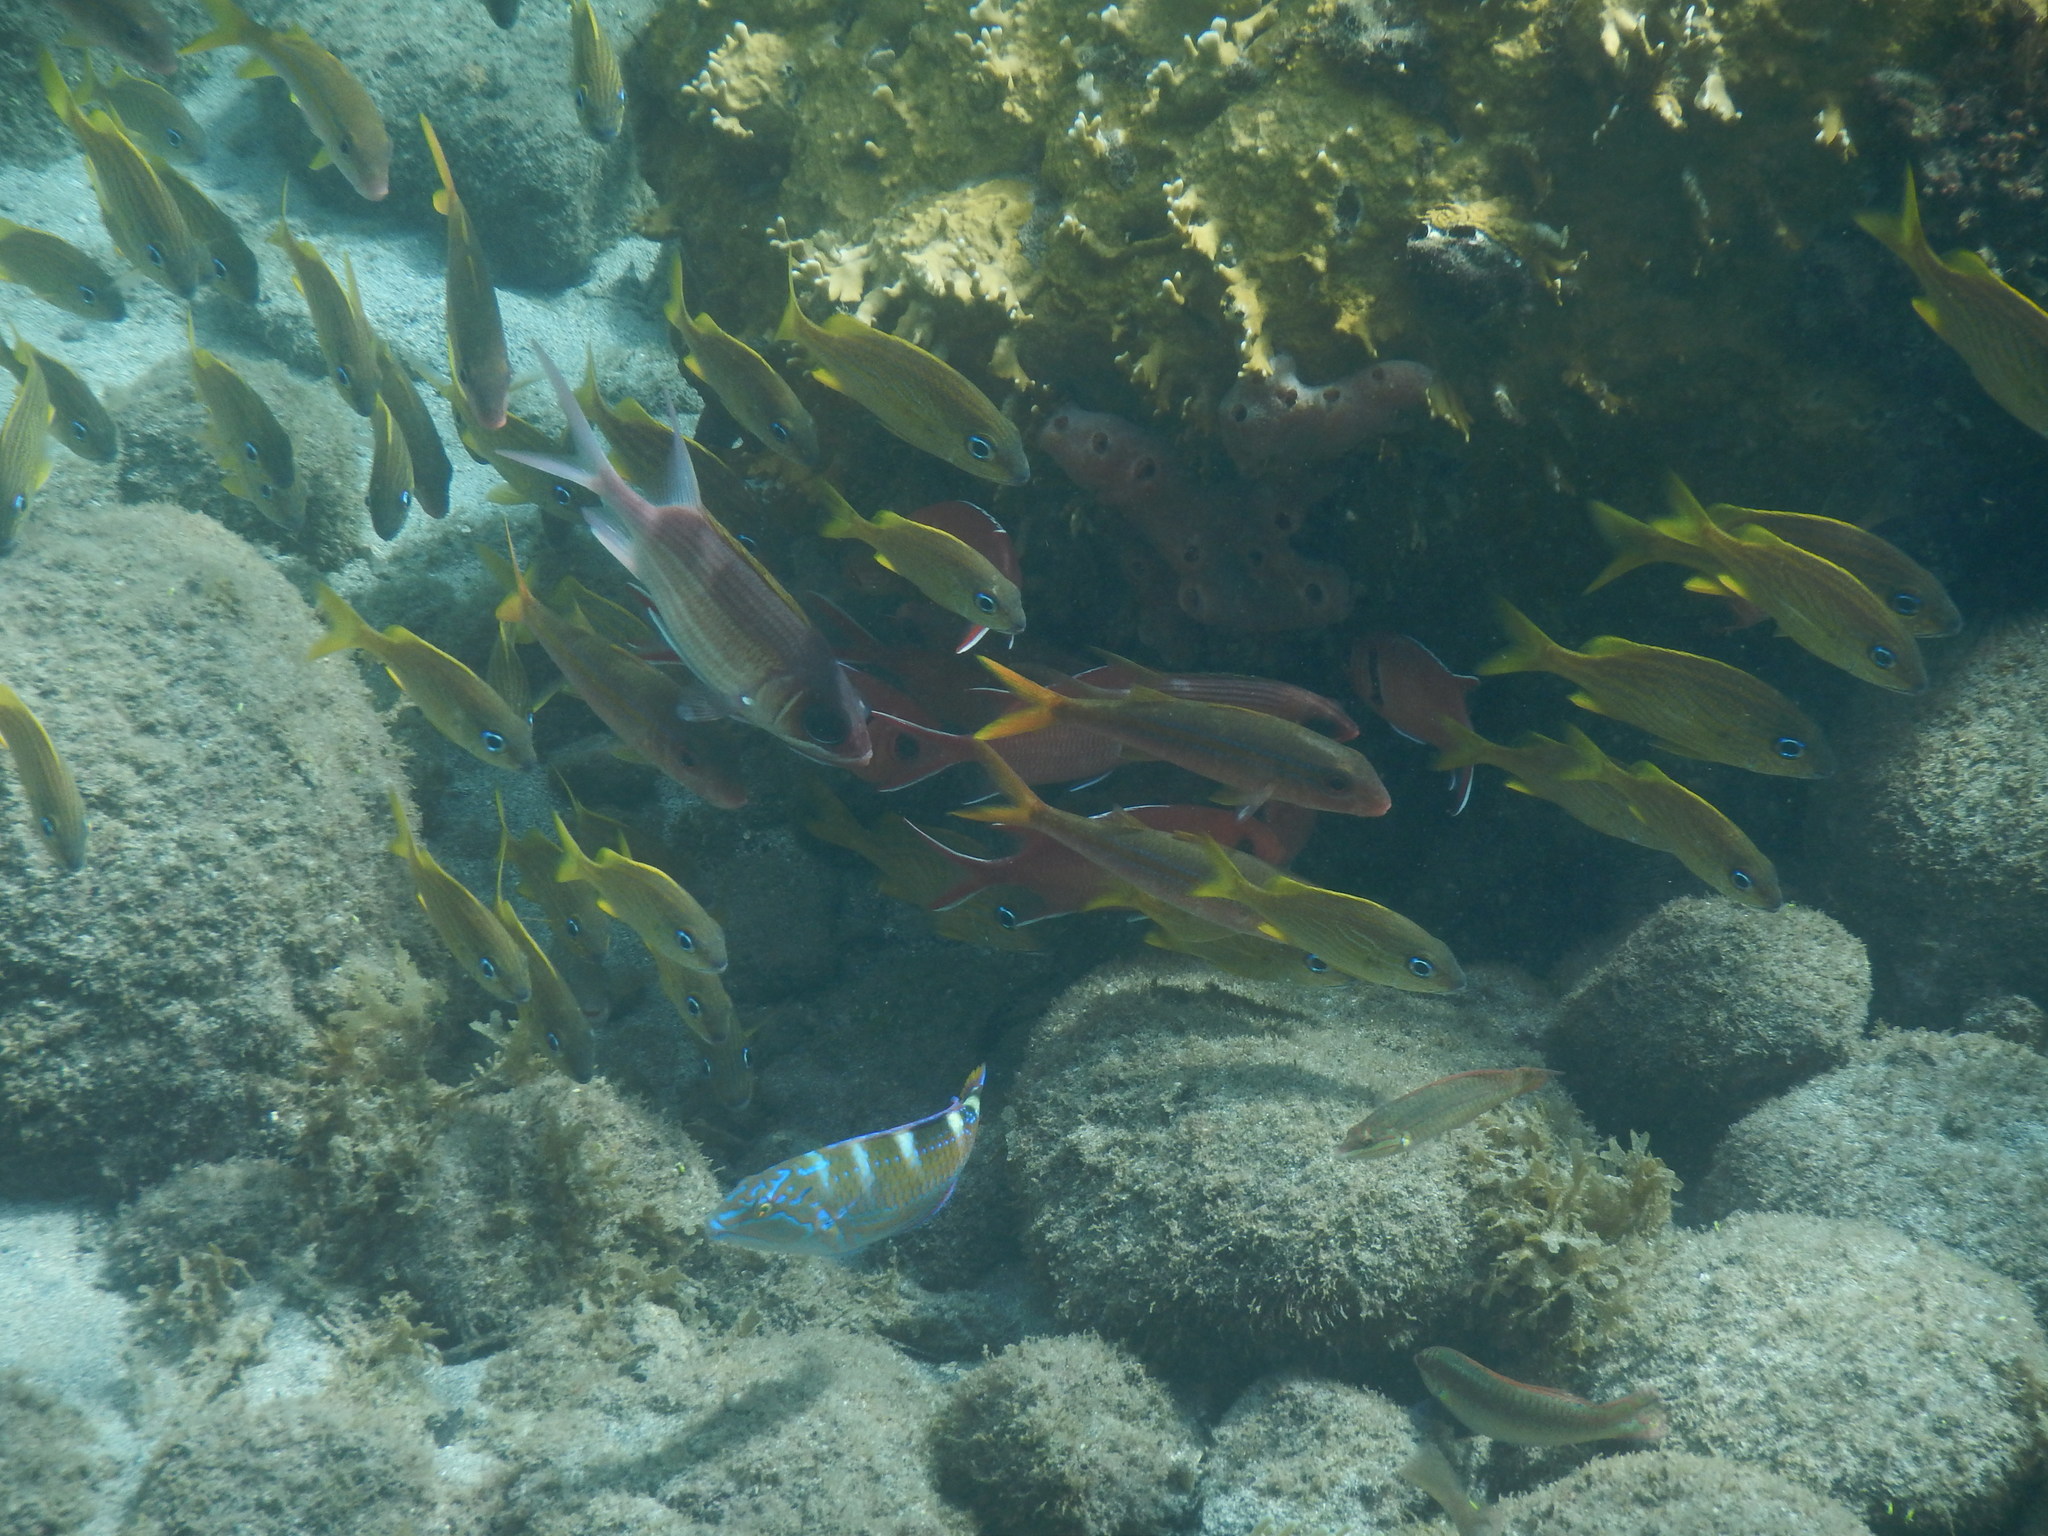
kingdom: Animalia
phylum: Chordata
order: Perciformes
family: Mullidae
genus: Mulloidichthys
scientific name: Mulloidichthys martinicus
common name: Yellow goatfish
